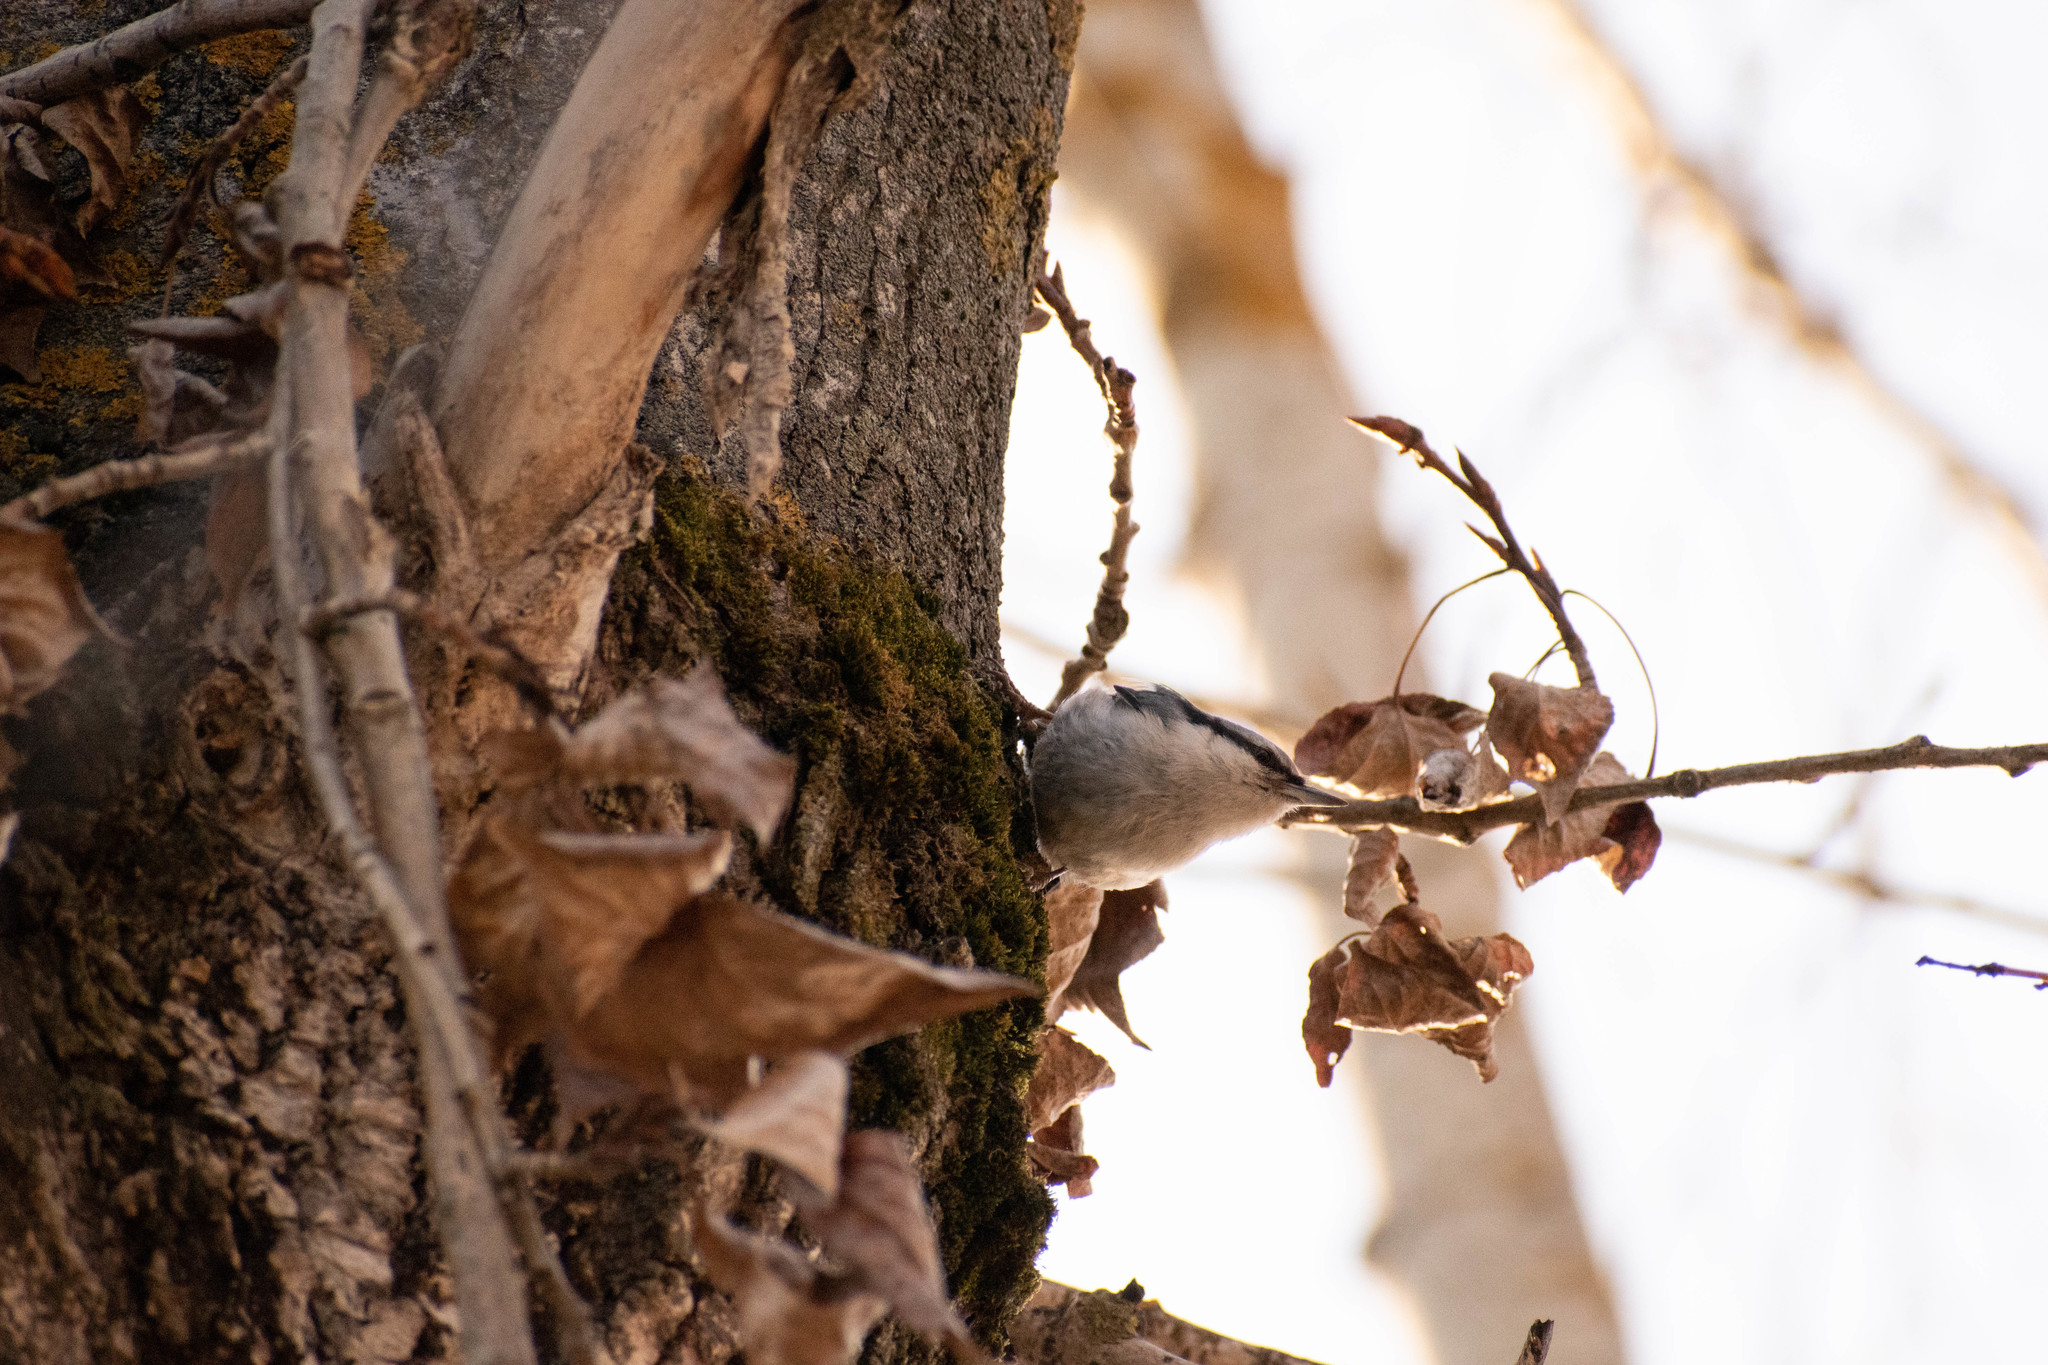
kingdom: Animalia
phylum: Chordata
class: Aves
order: Passeriformes
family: Sittidae
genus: Sitta
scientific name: Sitta europaea
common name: Eurasian nuthatch
